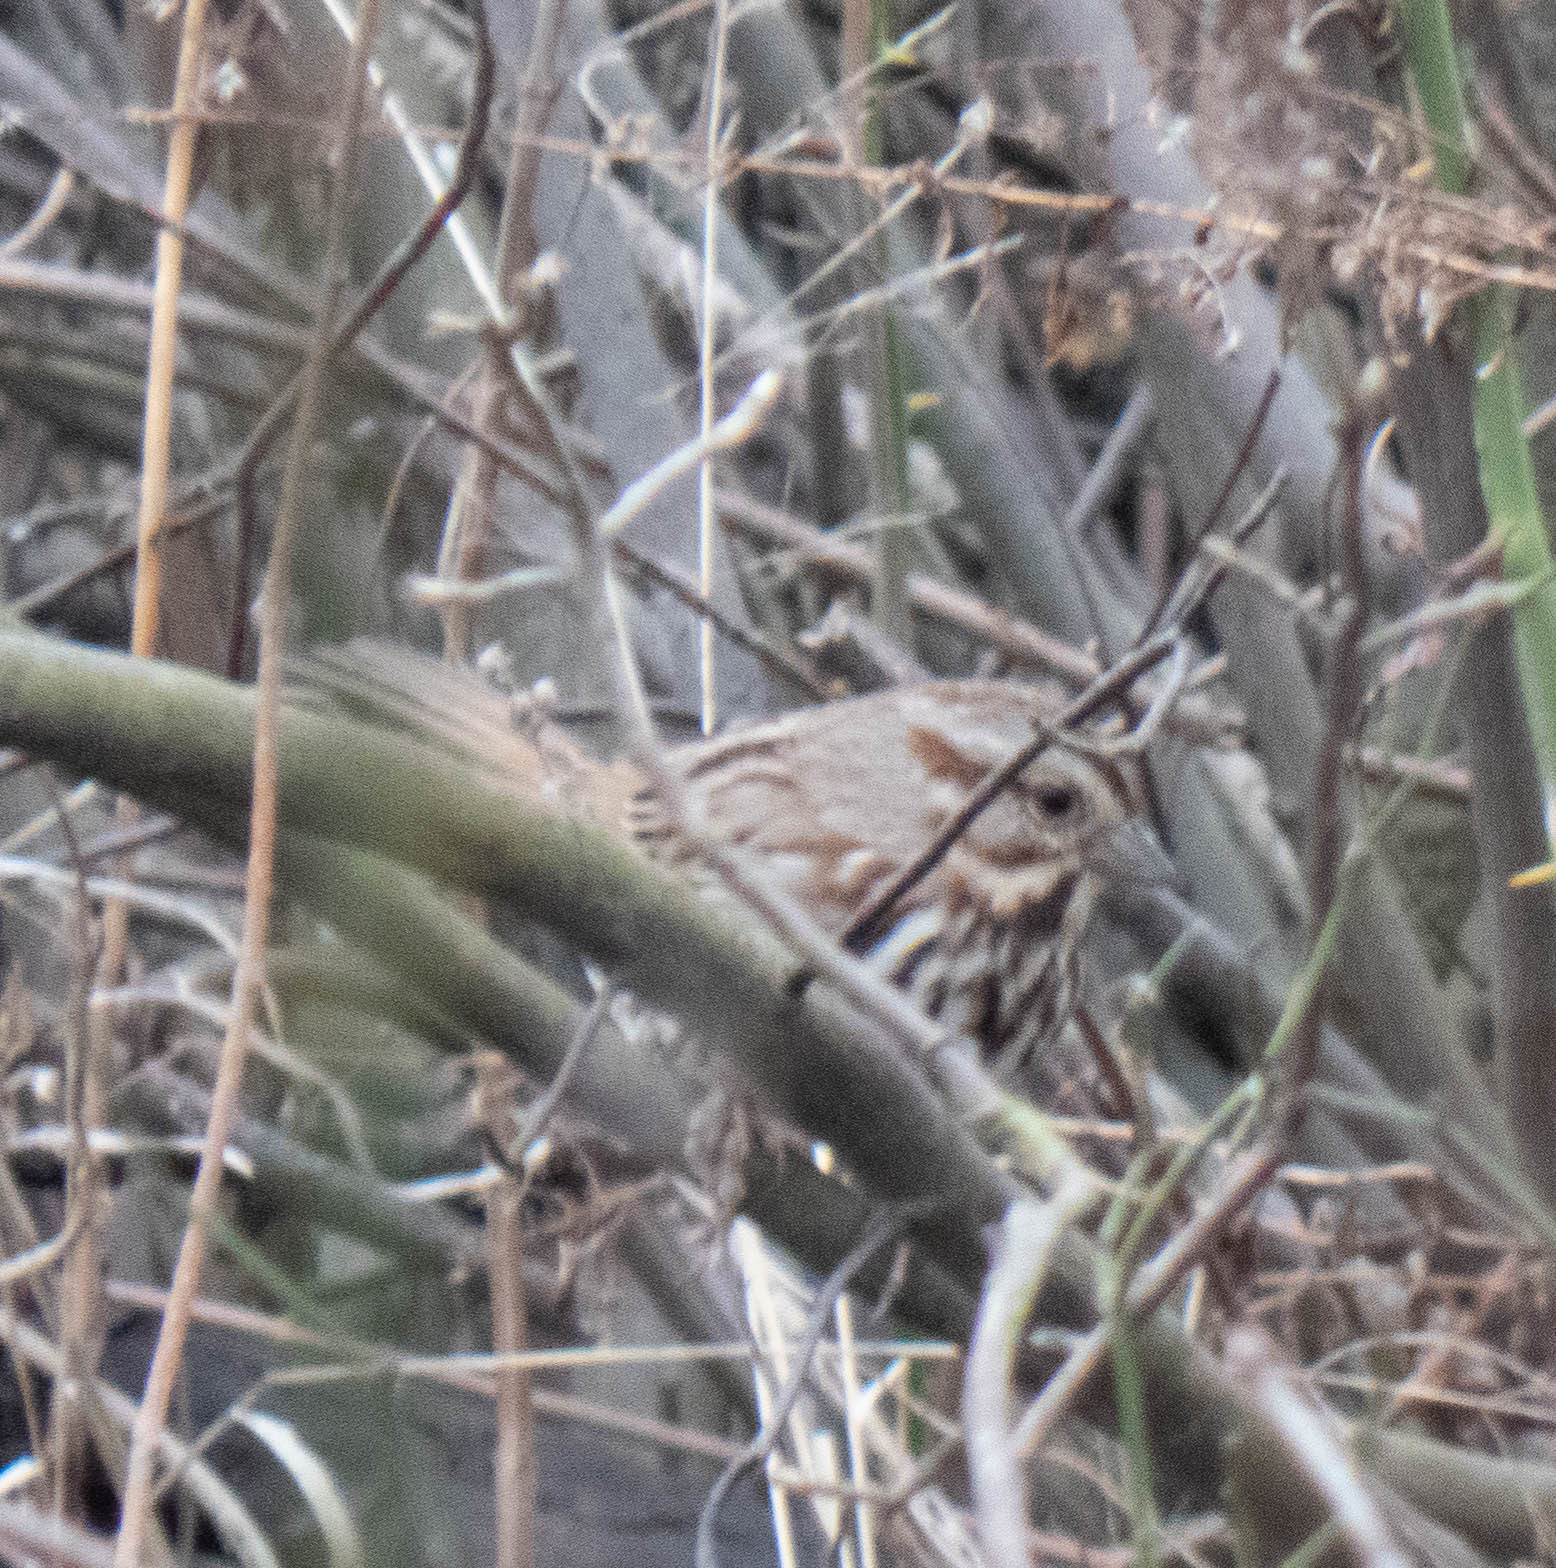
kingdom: Animalia
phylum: Chordata
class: Aves
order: Passeriformes
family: Passerellidae
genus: Melospiza
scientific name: Melospiza melodia
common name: Song sparrow
